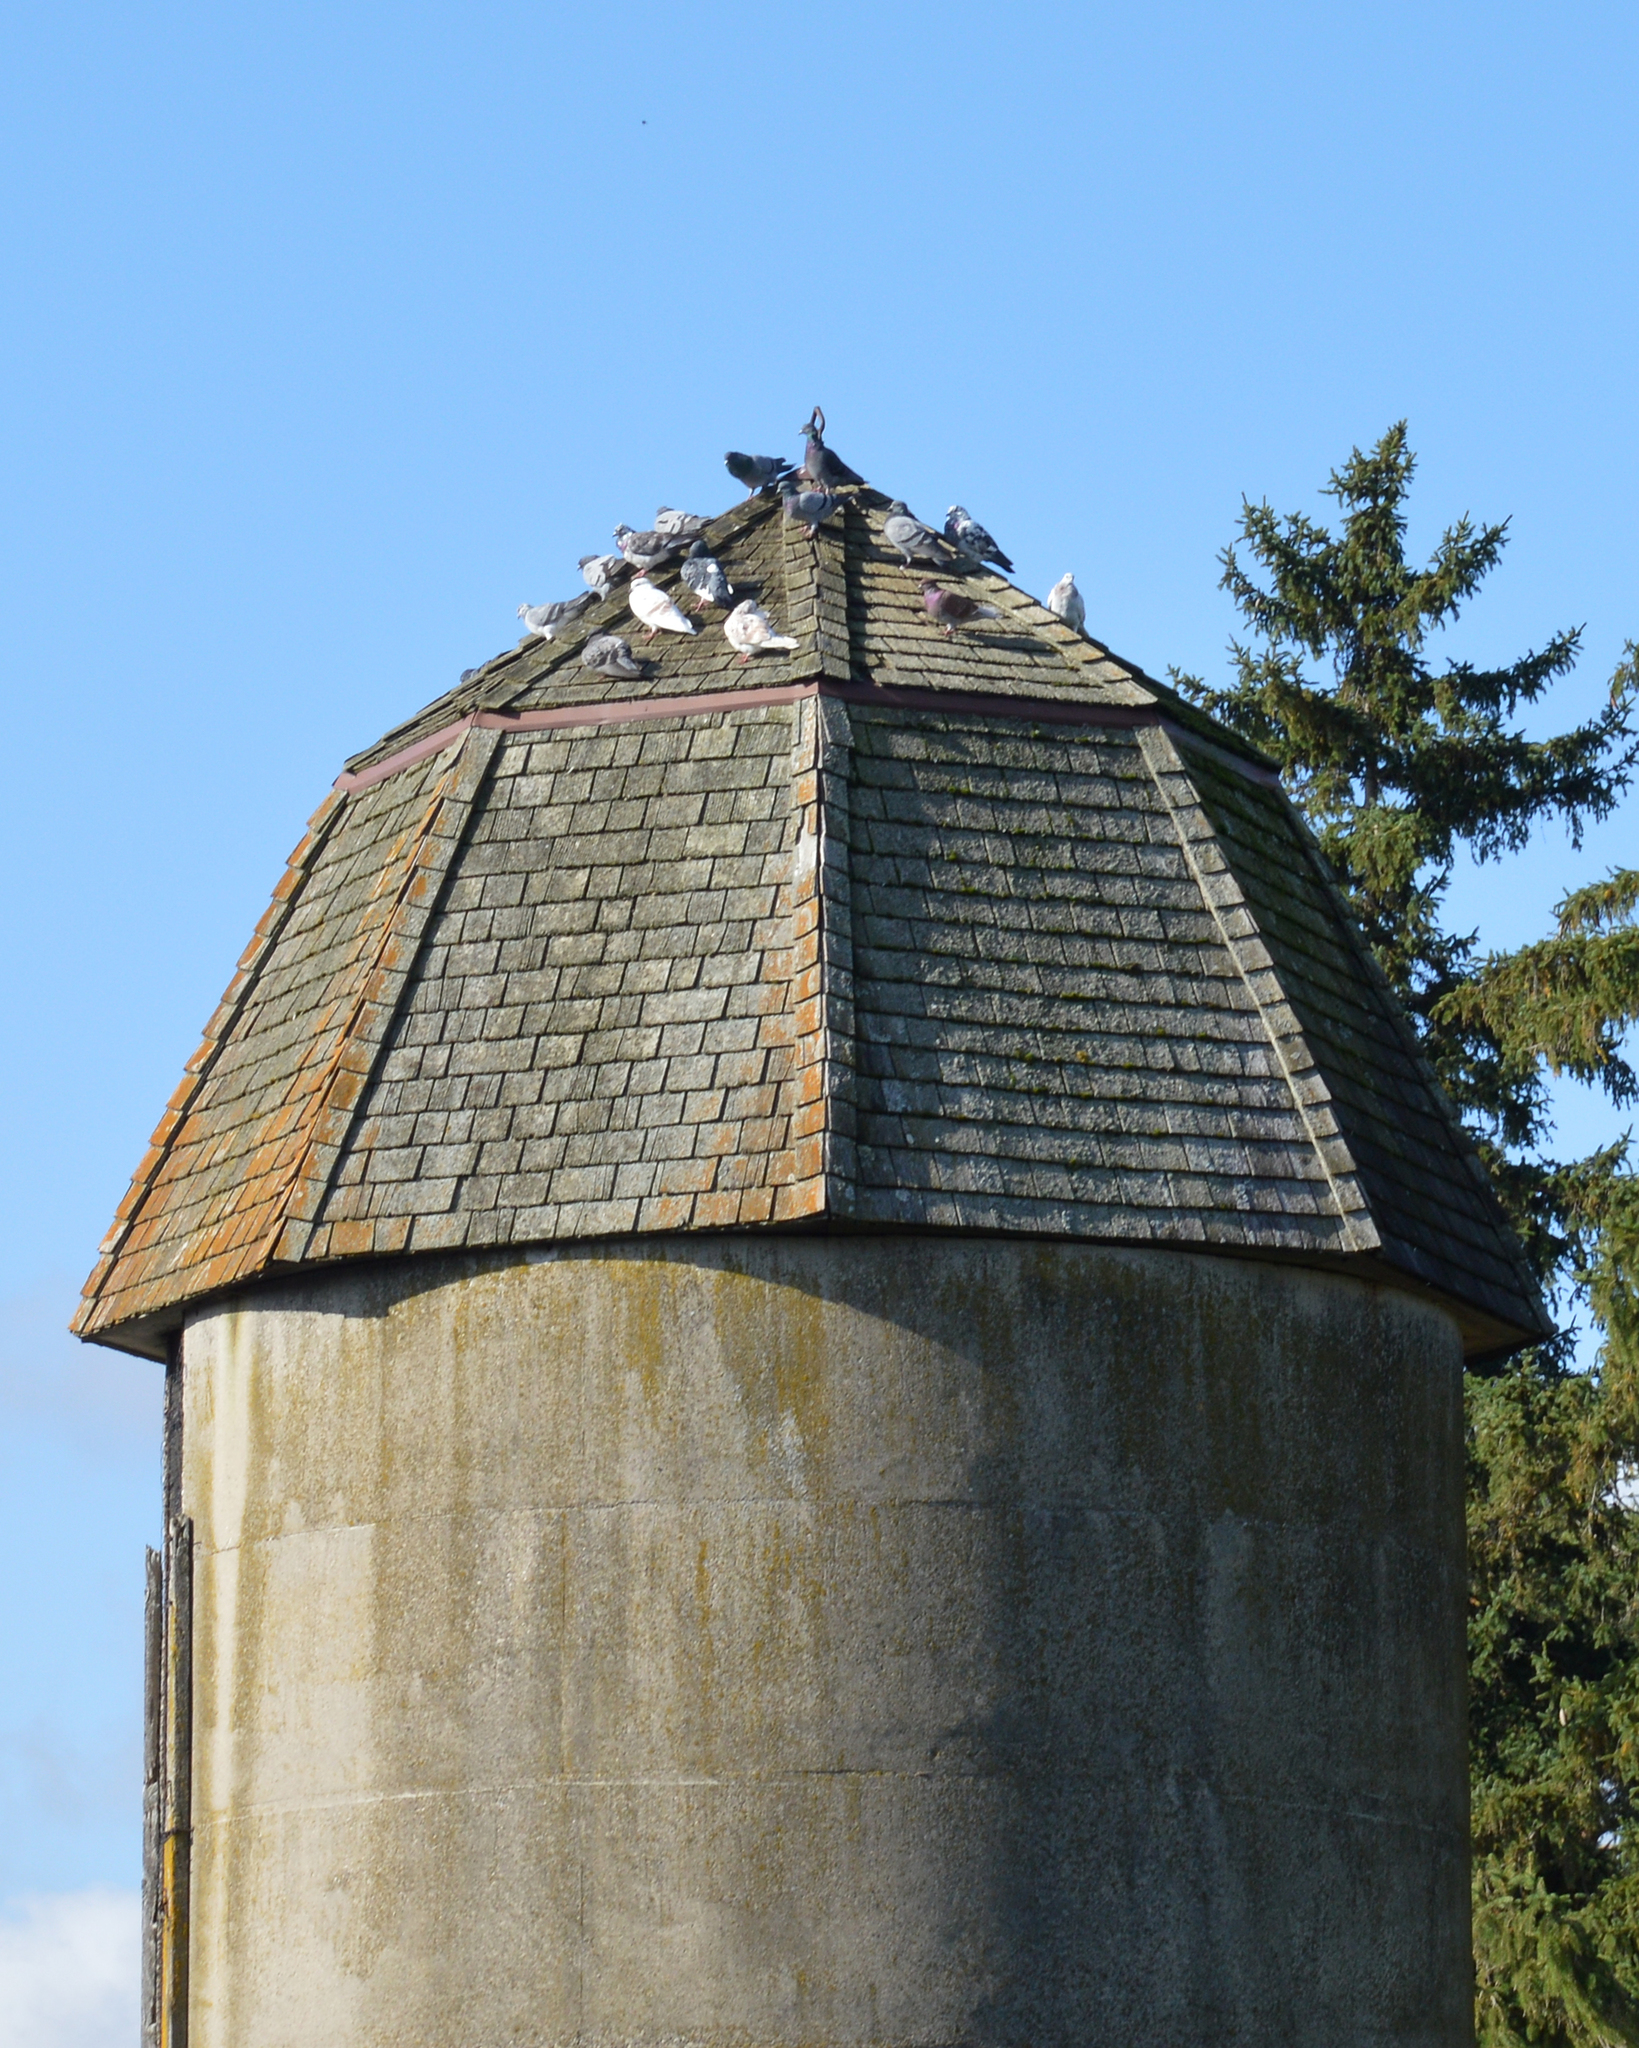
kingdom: Animalia
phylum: Chordata
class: Aves
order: Columbiformes
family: Columbidae
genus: Columba
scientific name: Columba livia
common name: Rock pigeon
